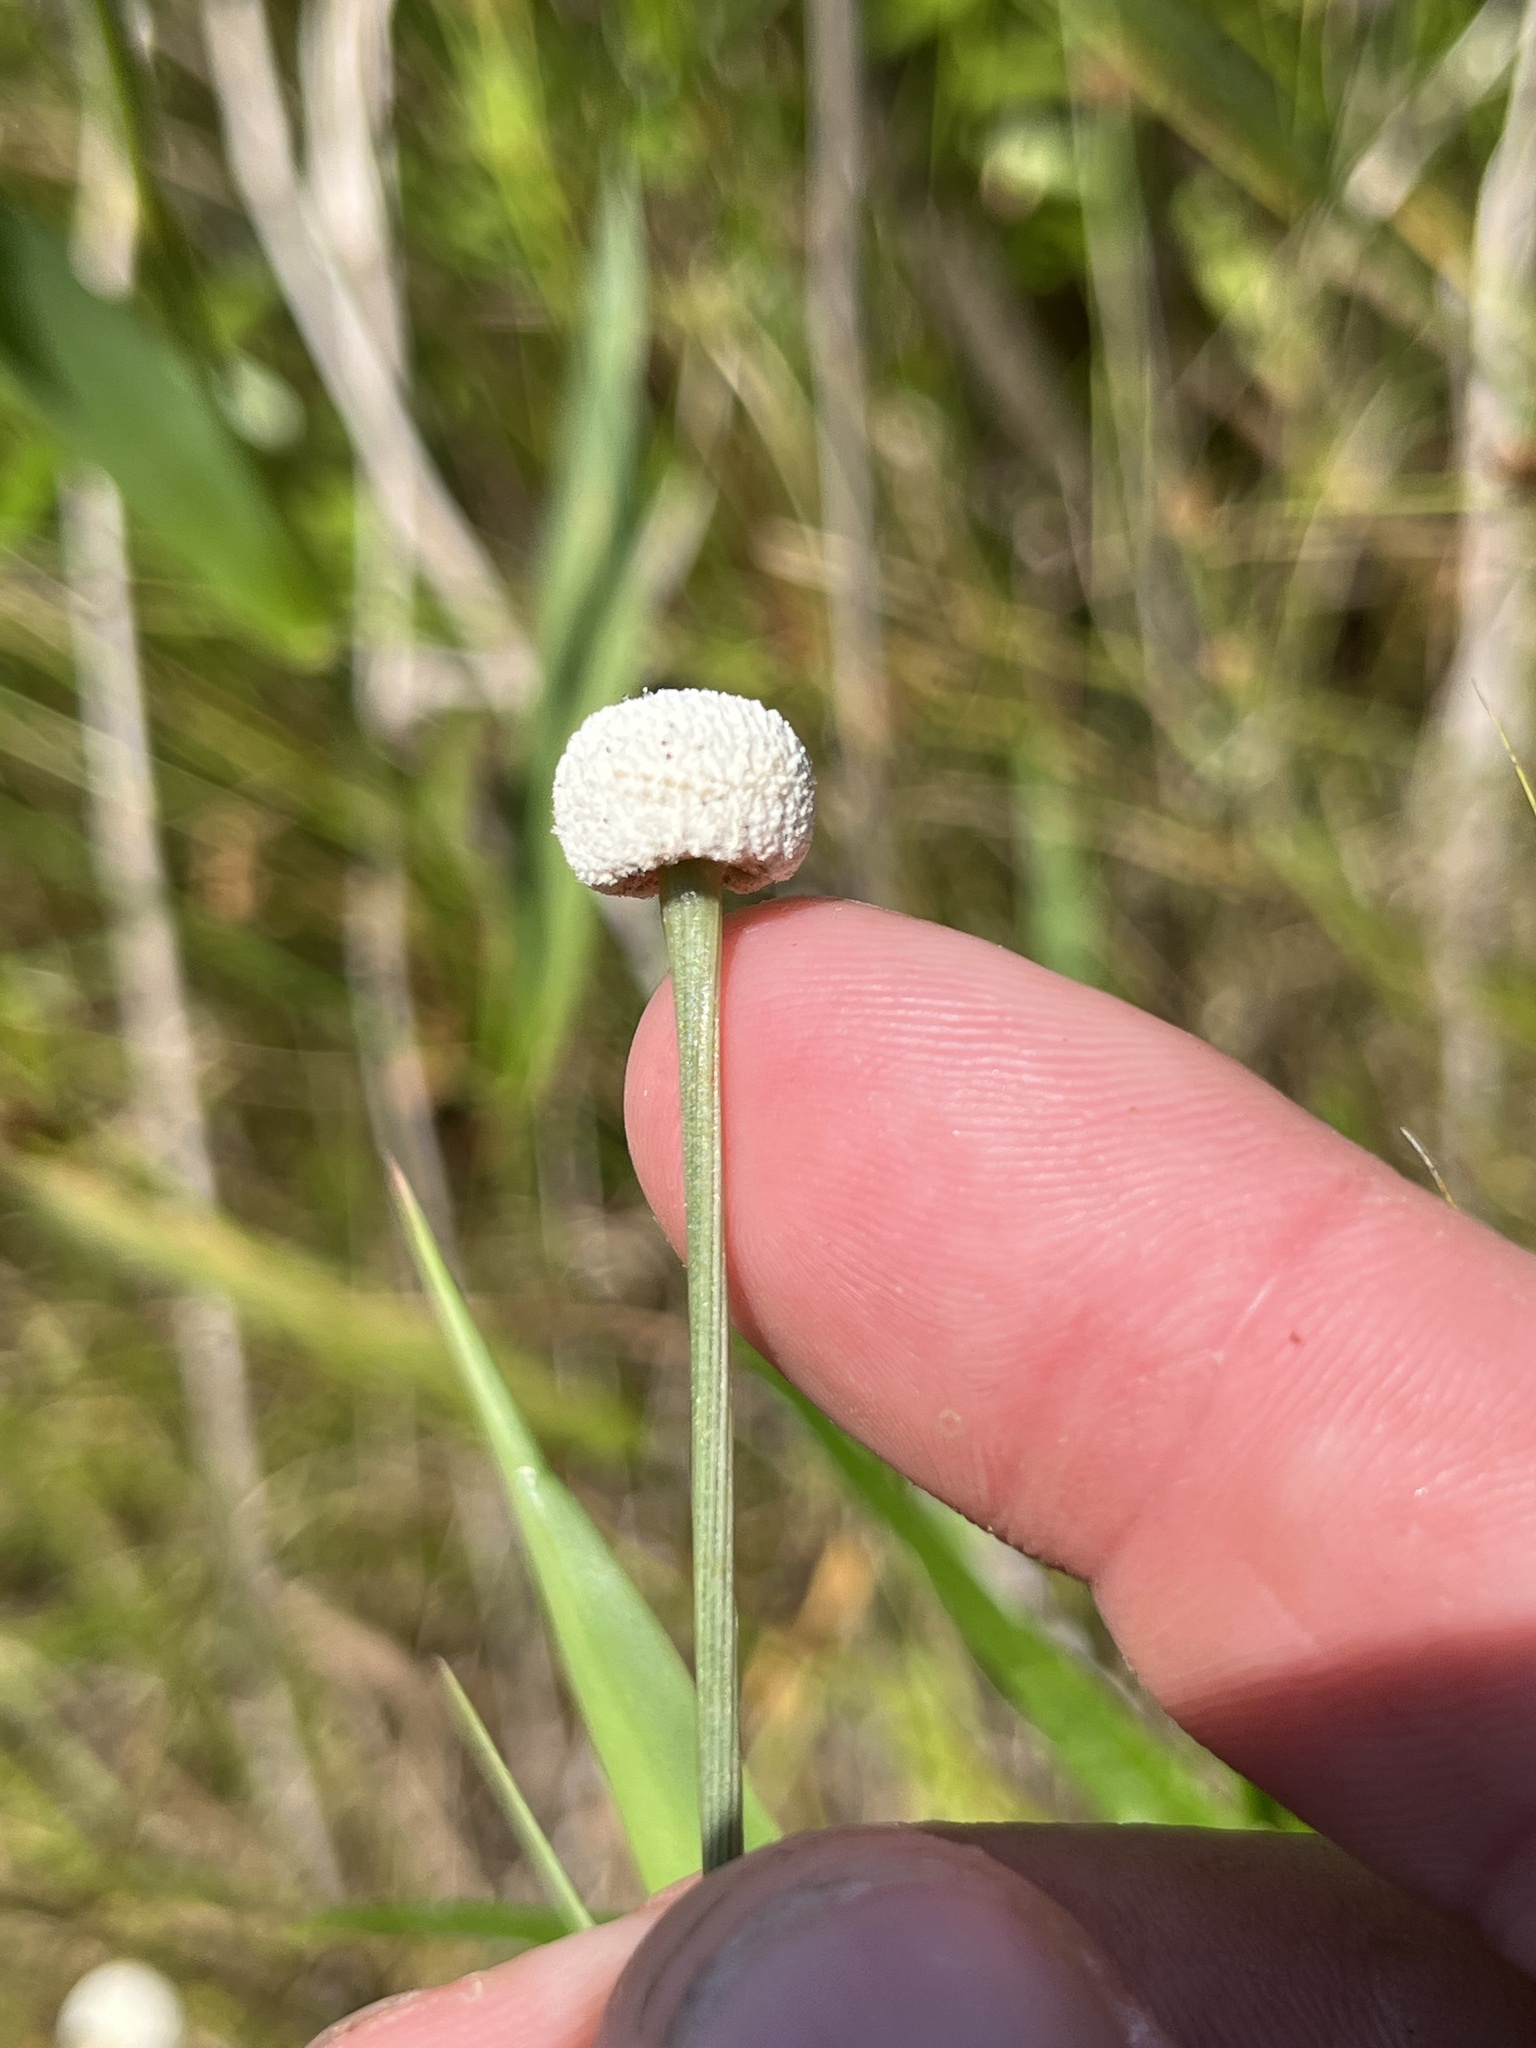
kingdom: Plantae
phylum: Tracheophyta
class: Liliopsida
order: Poales
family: Eriocaulaceae
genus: Eriocaulon
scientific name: Eriocaulon decangulare
